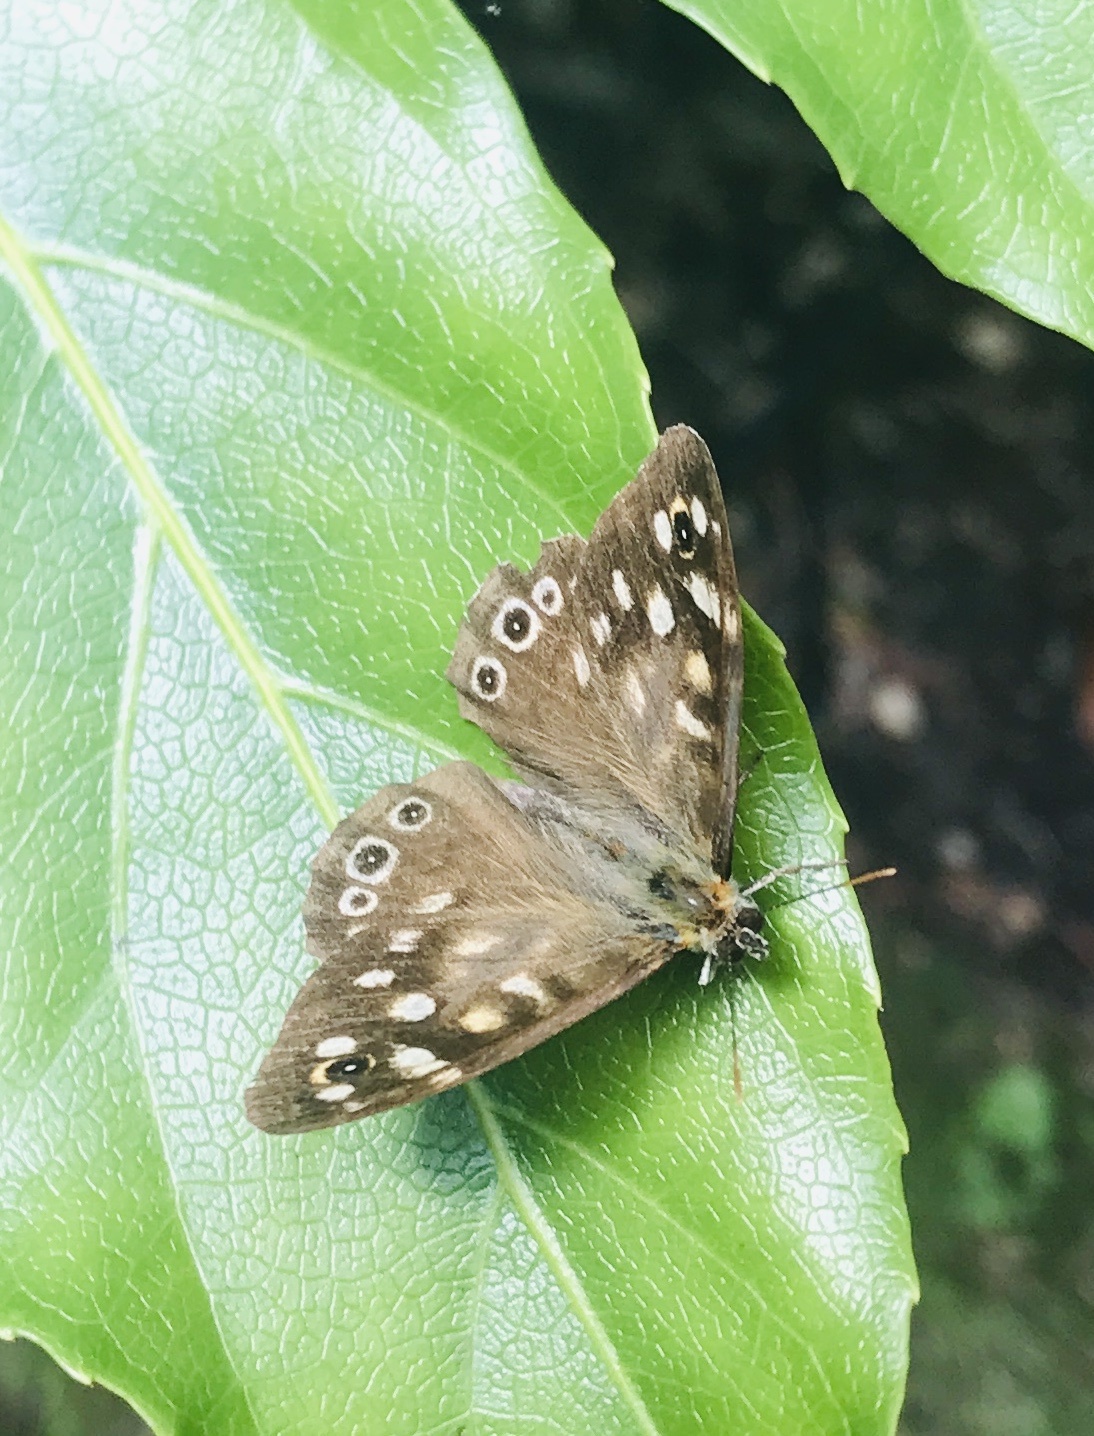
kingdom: Animalia
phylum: Arthropoda
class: Insecta
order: Lepidoptera
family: Nymphalidae
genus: Pararge
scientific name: Pararge aegeria
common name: Speckled wood
